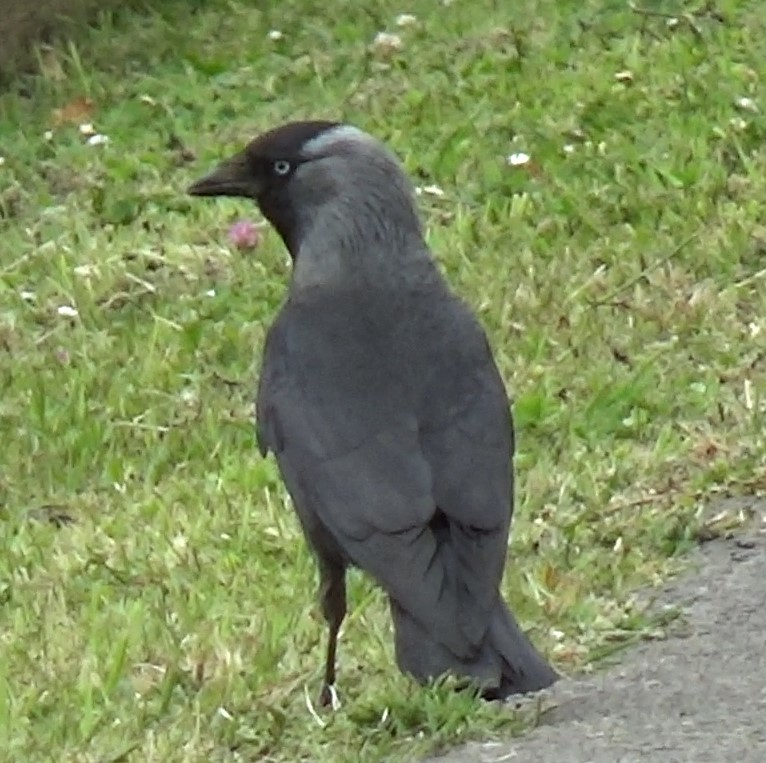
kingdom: Animalia
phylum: Chordata
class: Aves
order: Passeriformes
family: Corvidae
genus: Coloeus
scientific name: Coloeus monedula
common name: Western jackdaw
